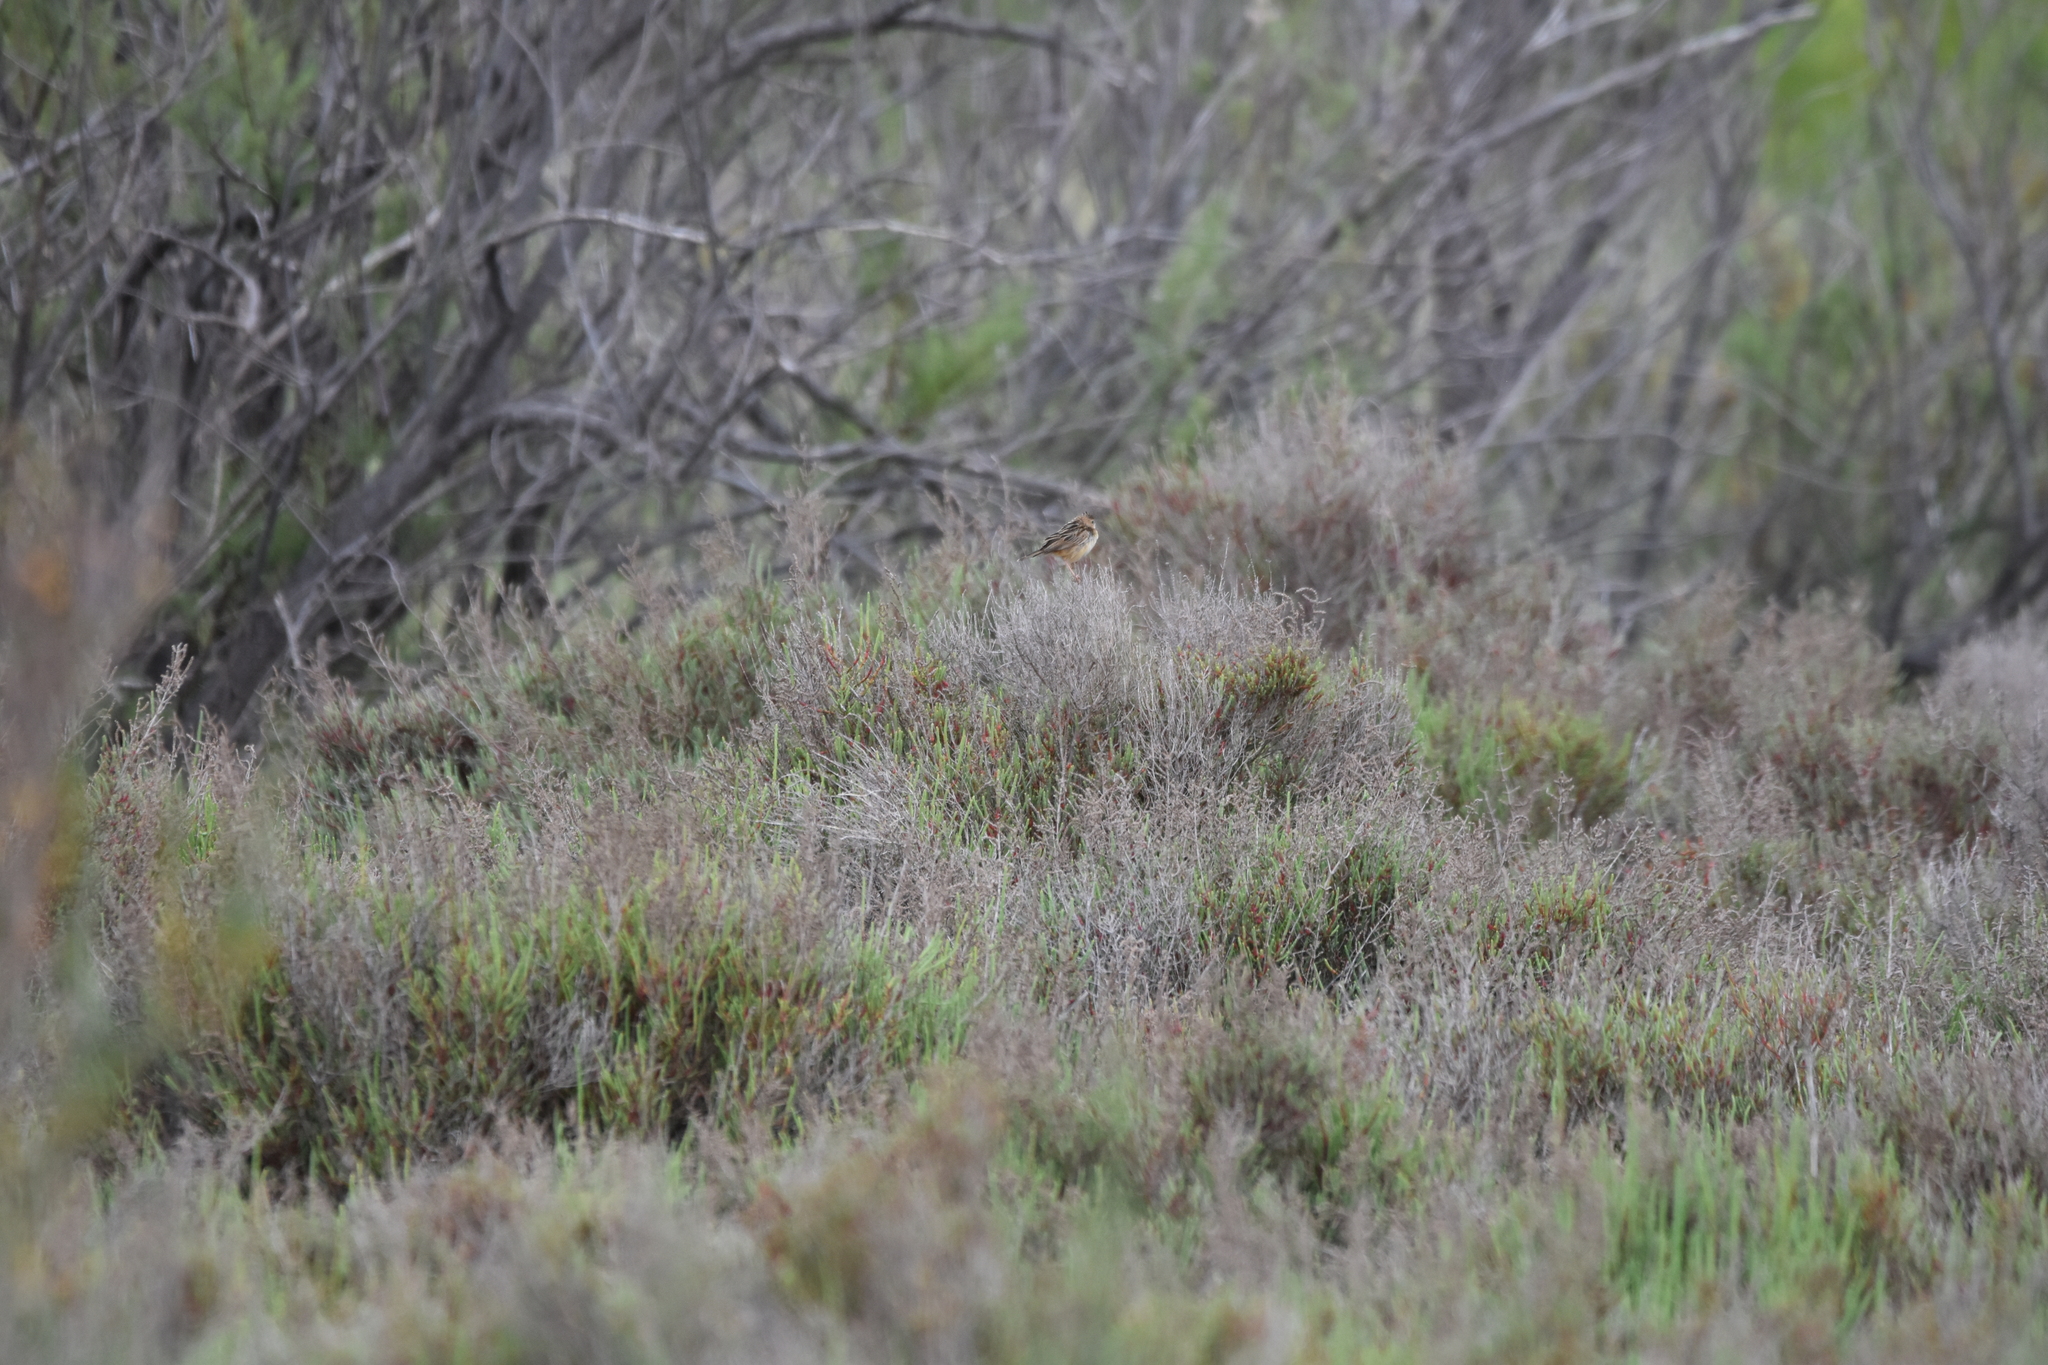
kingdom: Animalia
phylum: Chordata
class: Aves
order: Passeriformes
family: Cisticolidae
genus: Cisticola
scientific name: Cisticola juncidis
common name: Zitting cisticola
